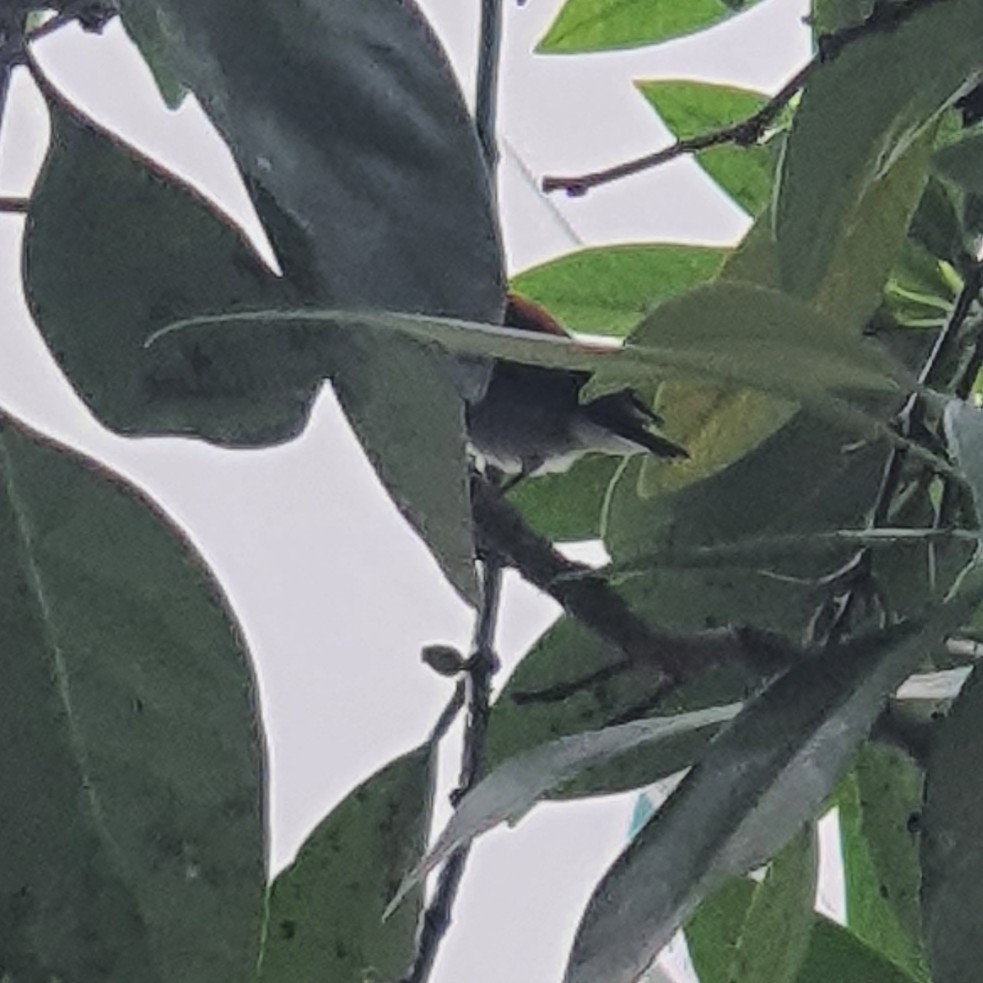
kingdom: Animalia
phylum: Chordata
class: Aves
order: Passeriformes
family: Dicaeidae
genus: Dicaeum
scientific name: Dicaeum cruentatum
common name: Scarlet-backed flowerpecker
